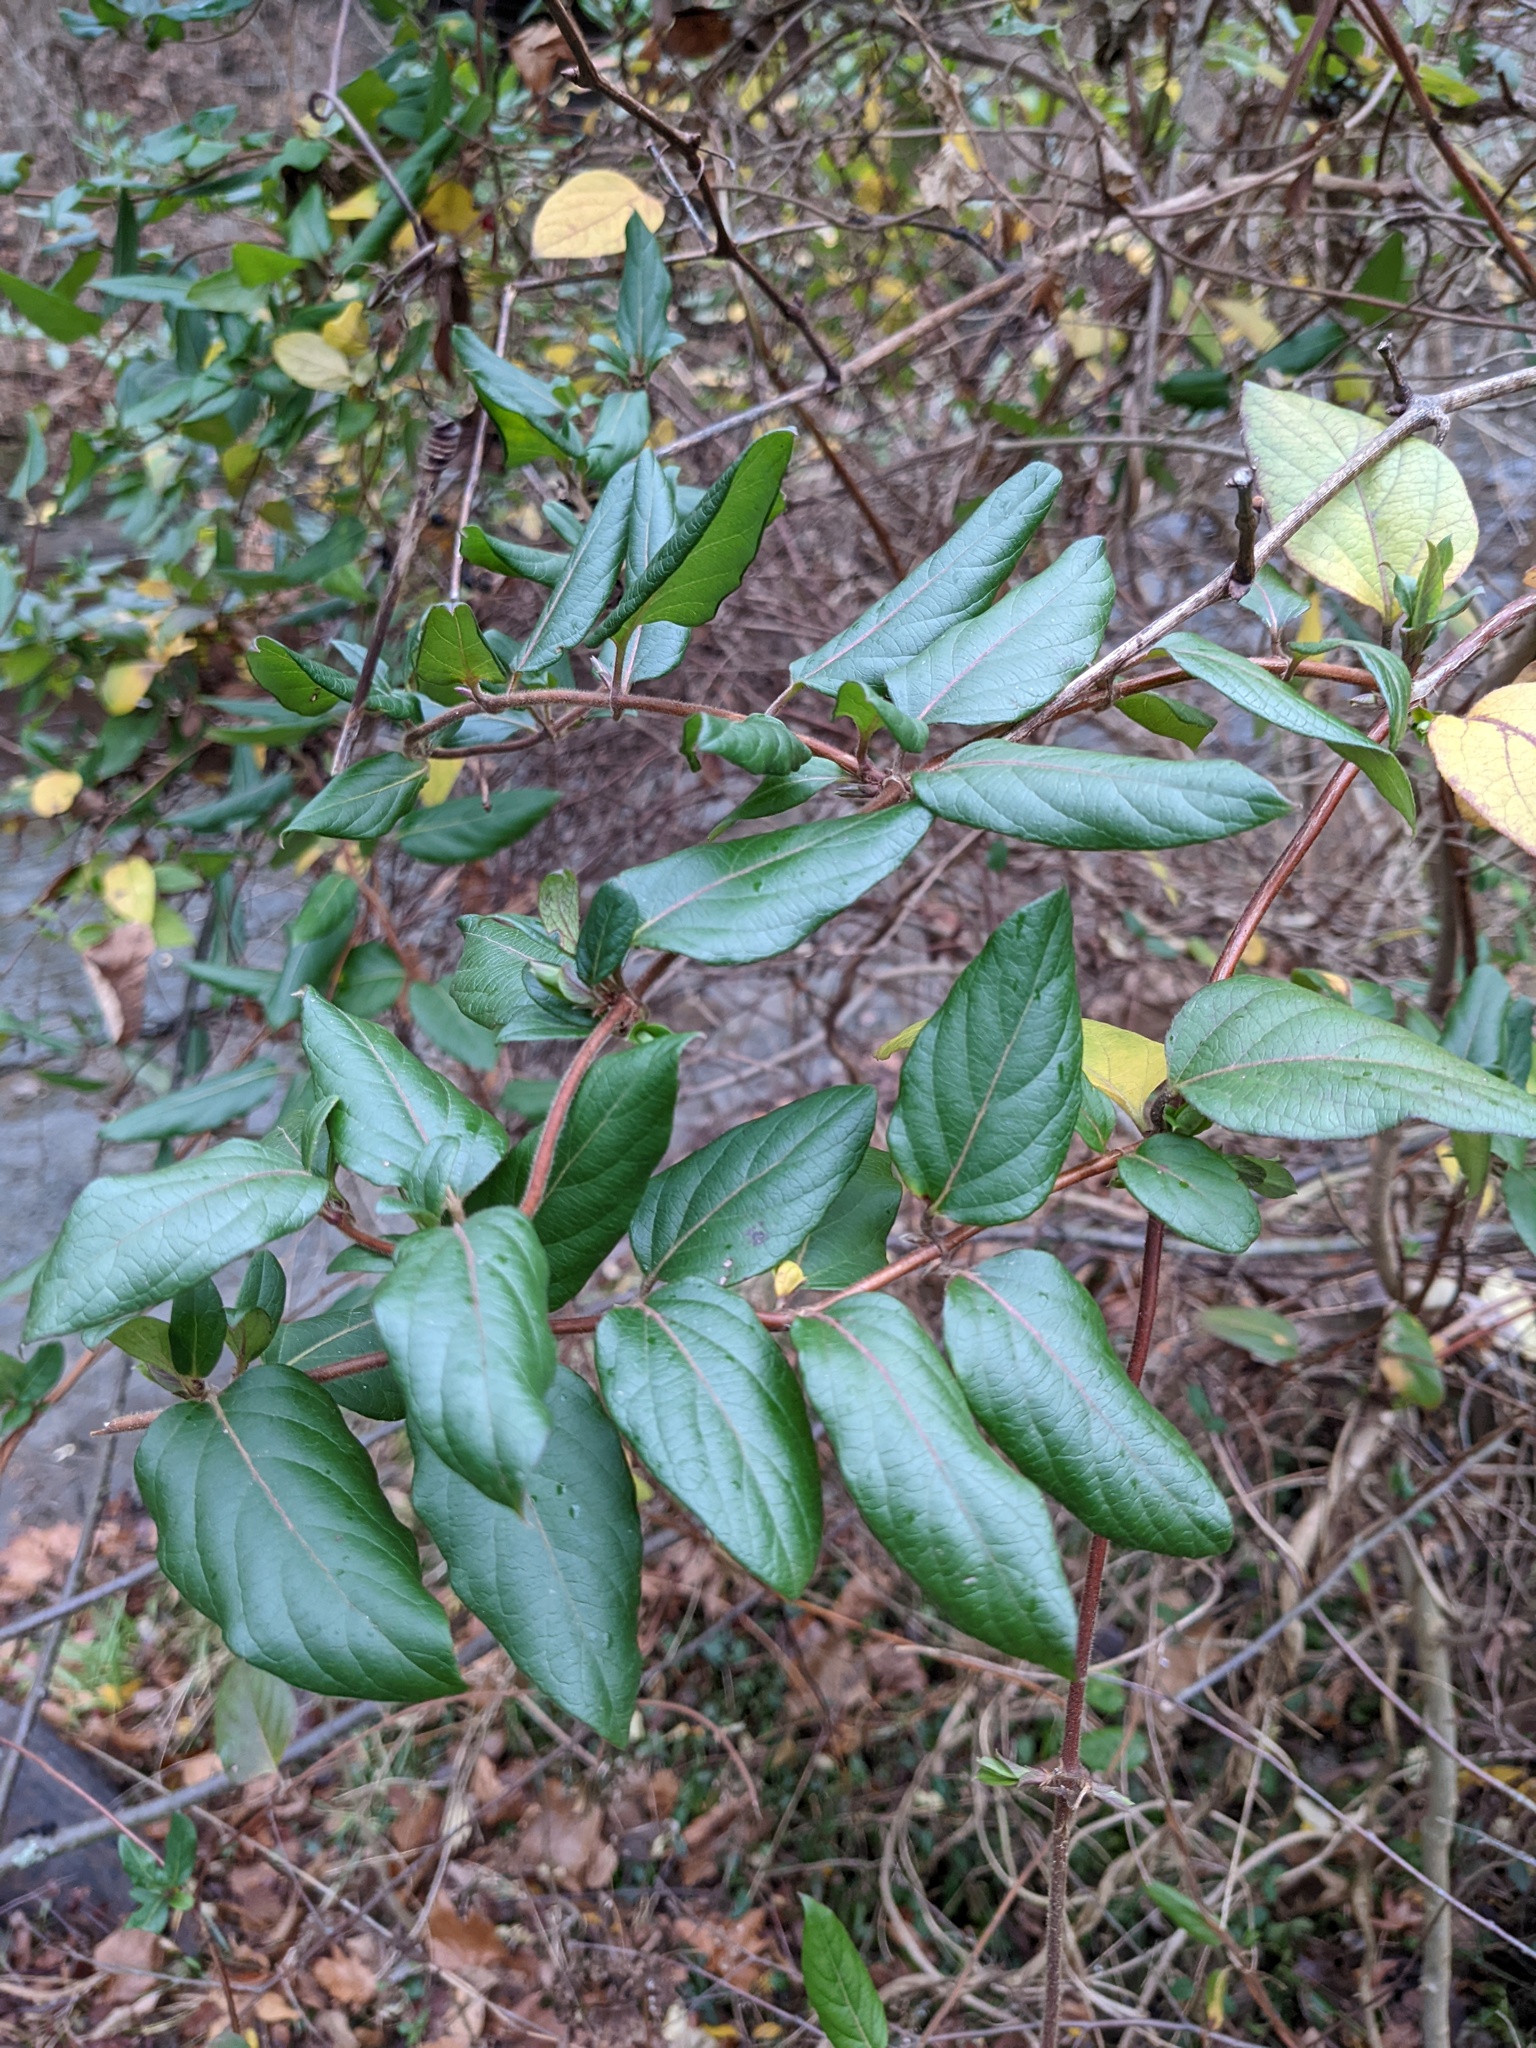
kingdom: Plantae
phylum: Tracheophyta
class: Magnoliopsida
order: Dipsacales
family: Caprifoliaceae
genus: Lonicera
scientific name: Lonicera japonica
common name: Japanese honeysuckle
